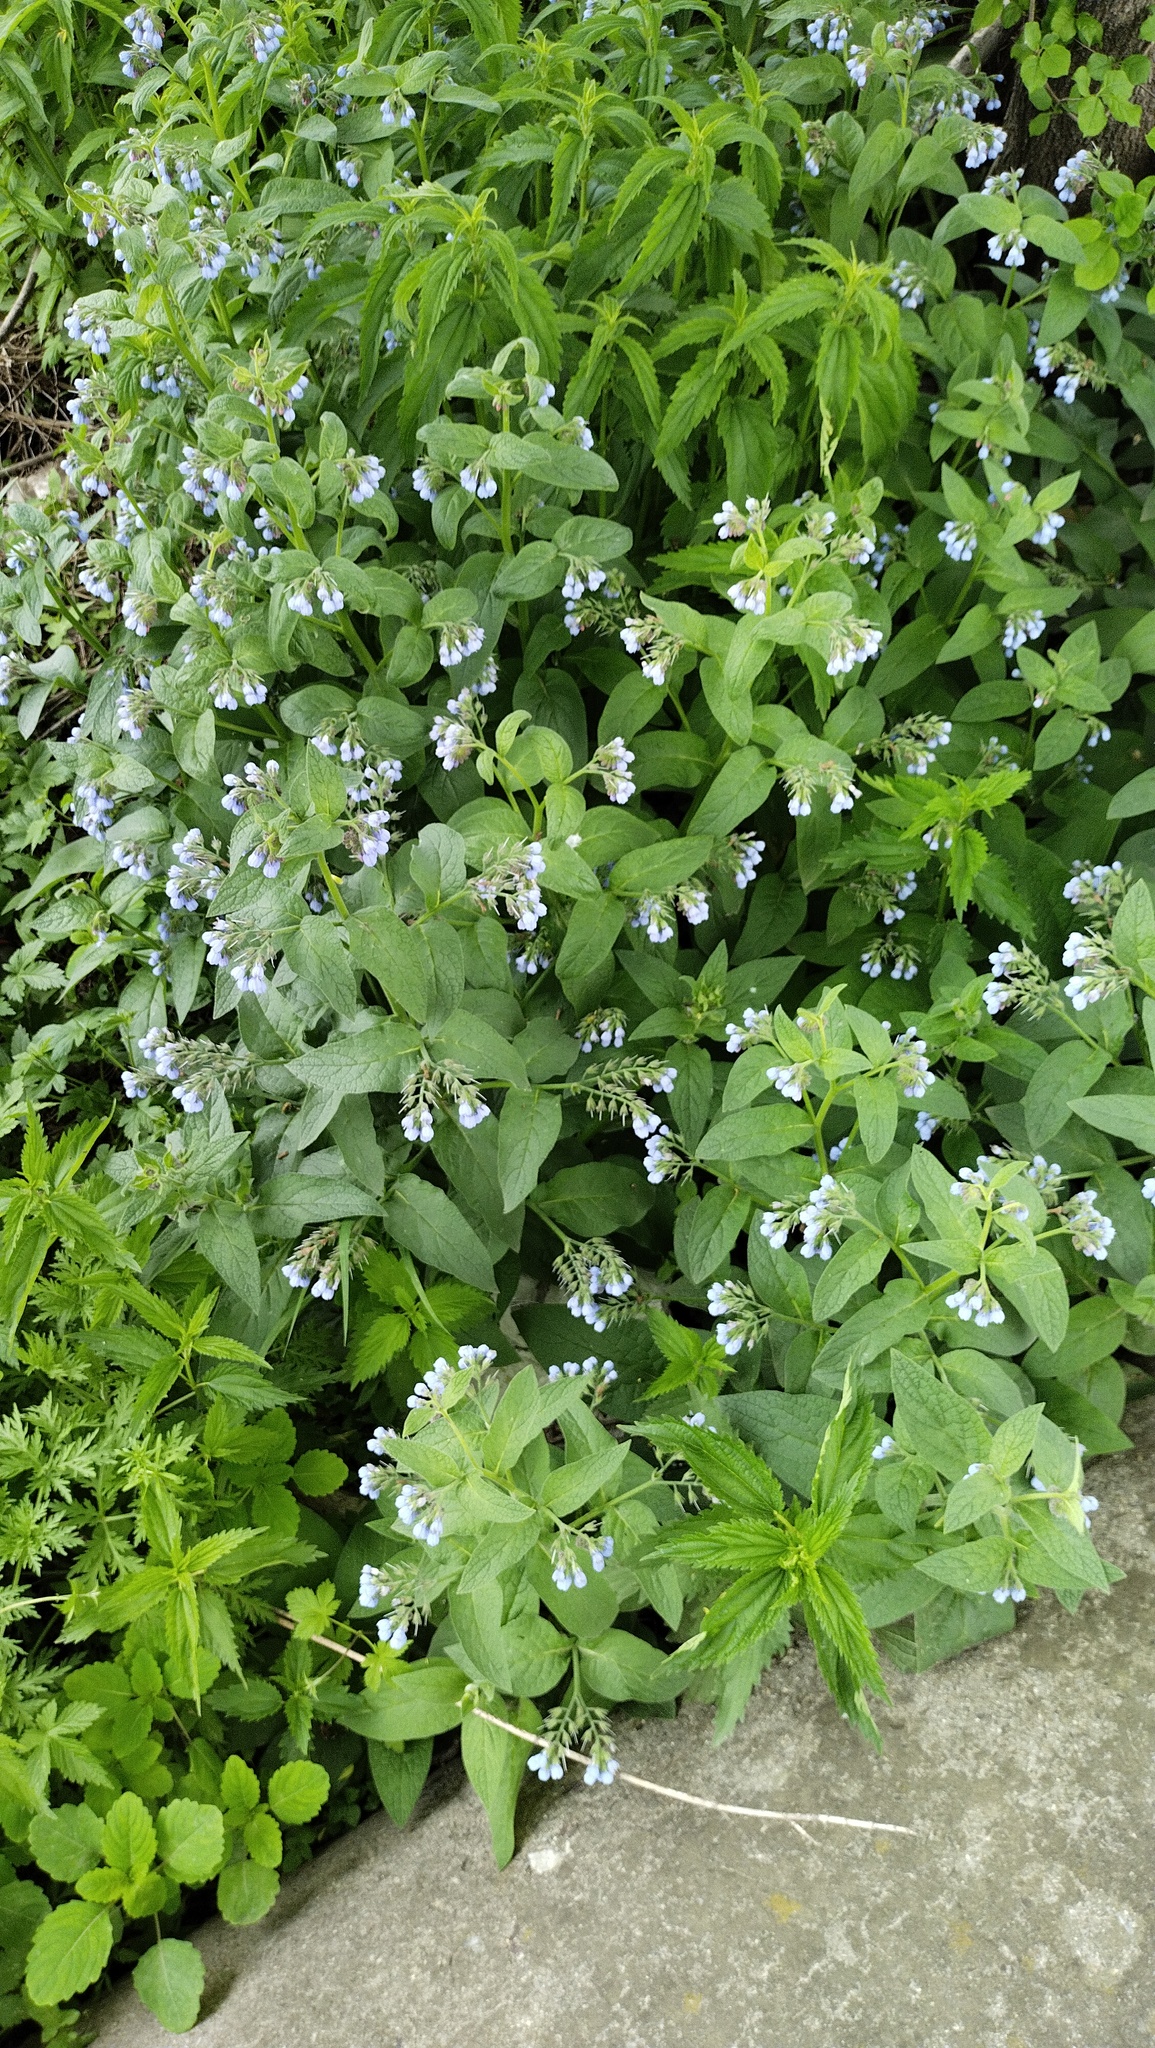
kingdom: Plantae
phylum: Tracheophyta
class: Magnoliopsida
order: Boraginales
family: Boraginaceae
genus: Symphytum
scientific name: Symphytum caucasicum
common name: Caucasian comfrey
